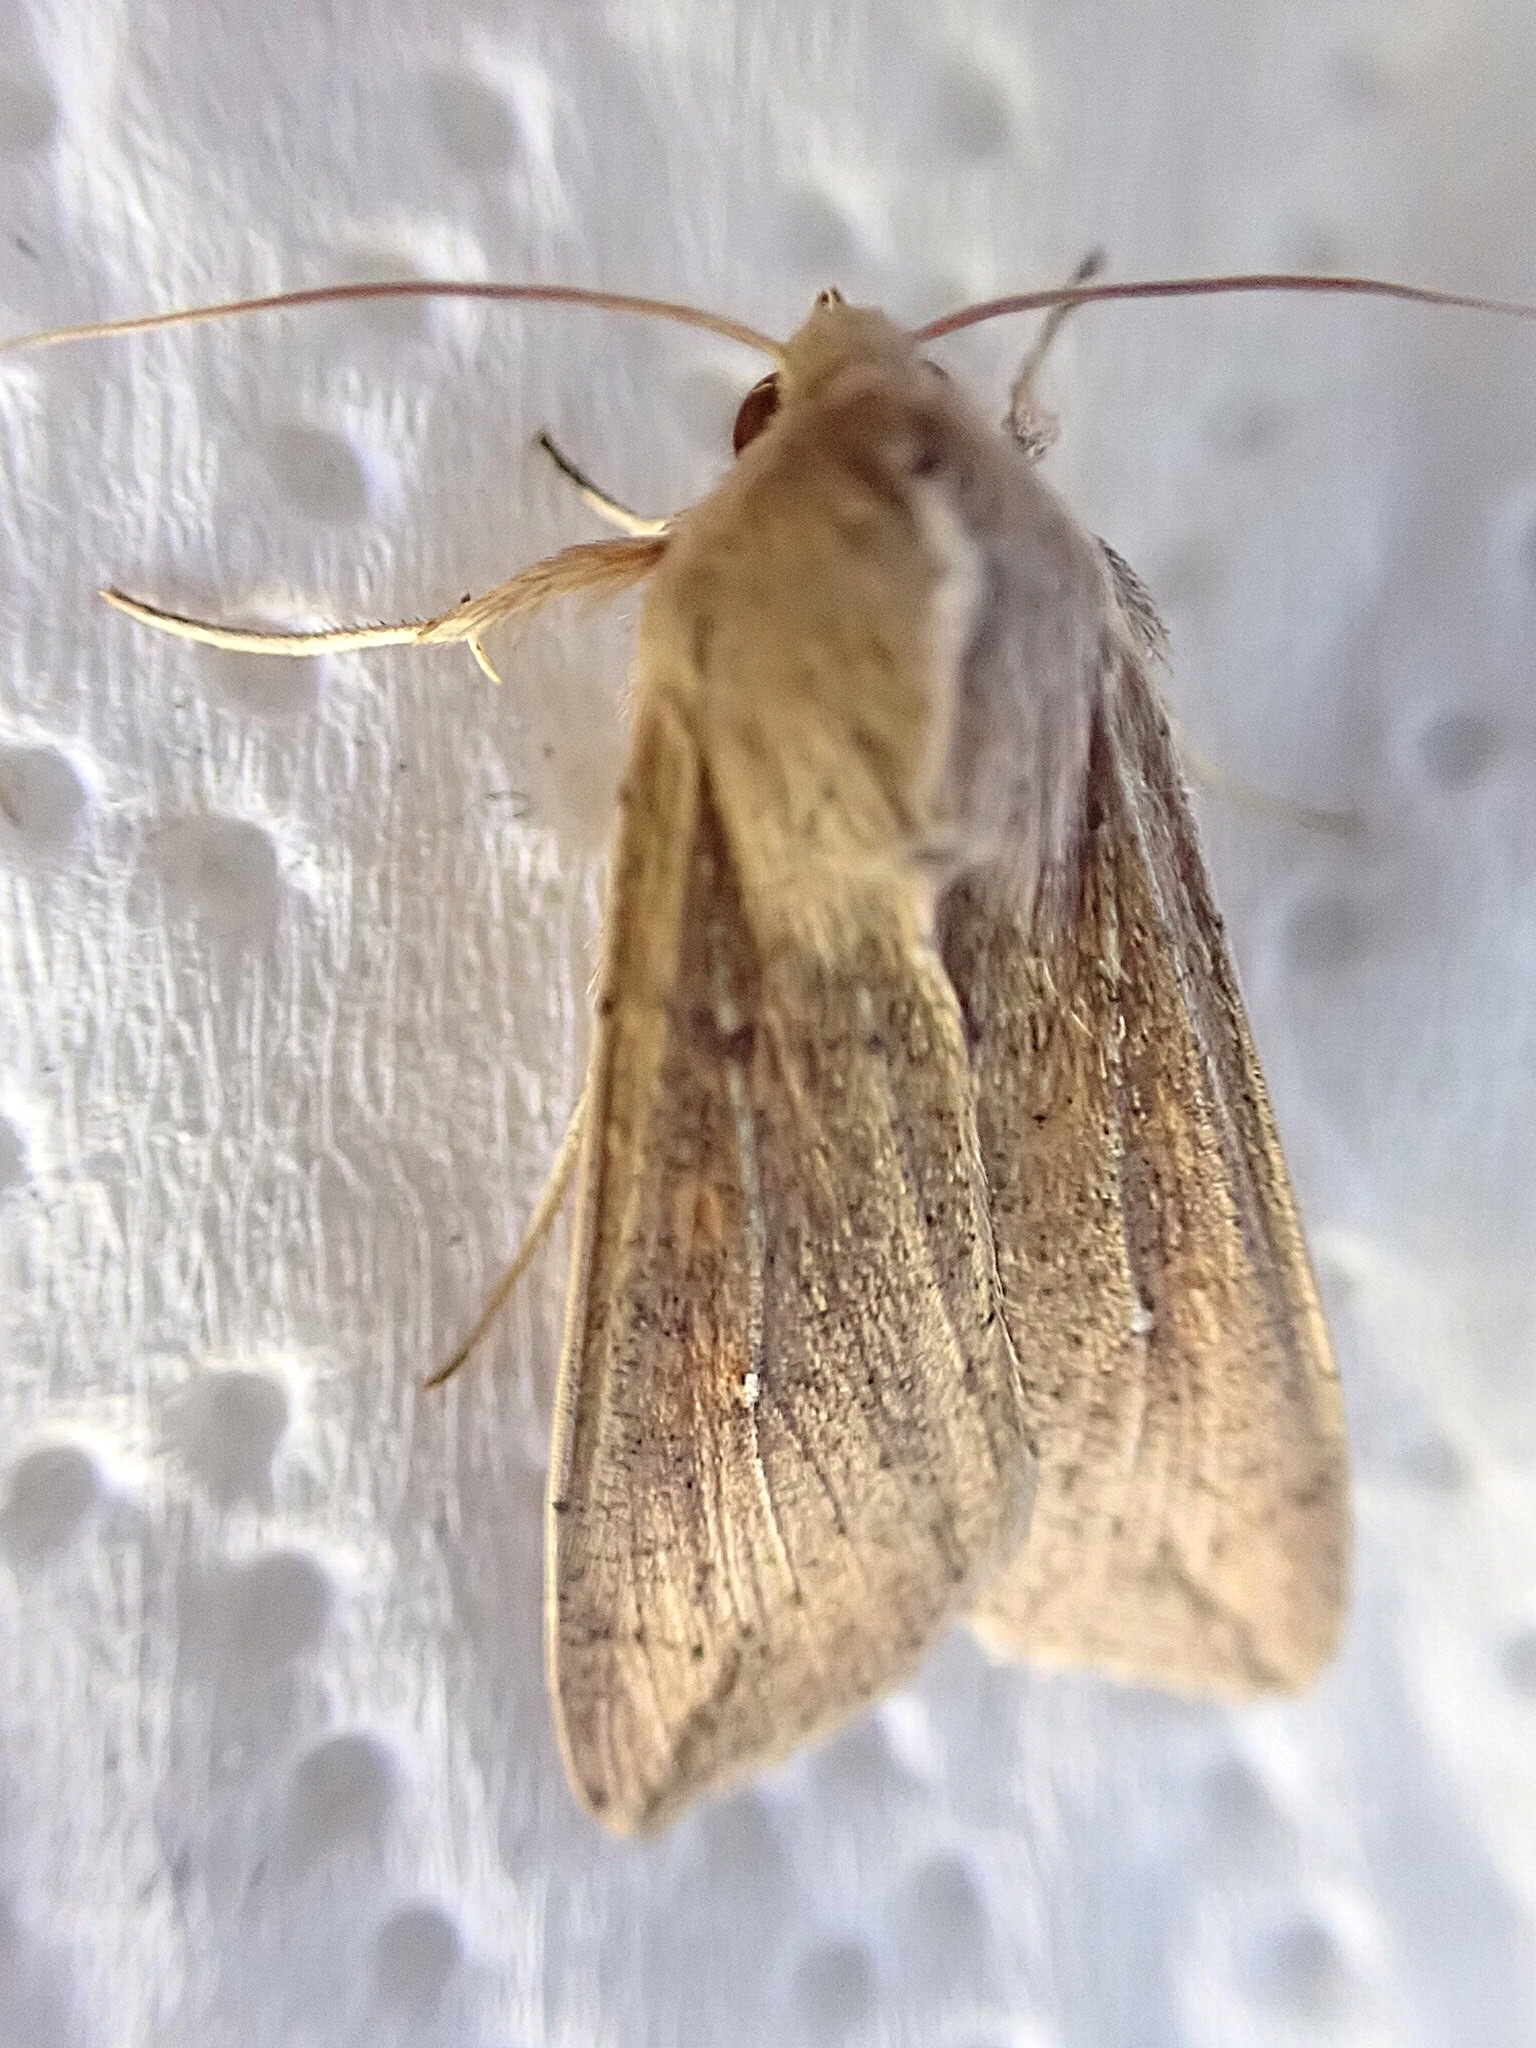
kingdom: Animalia
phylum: Arthropoda
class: Insecta
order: Lepidoptera
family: Noctuidae
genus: Mythimna
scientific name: Mythimna unipuncta
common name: White-speck
